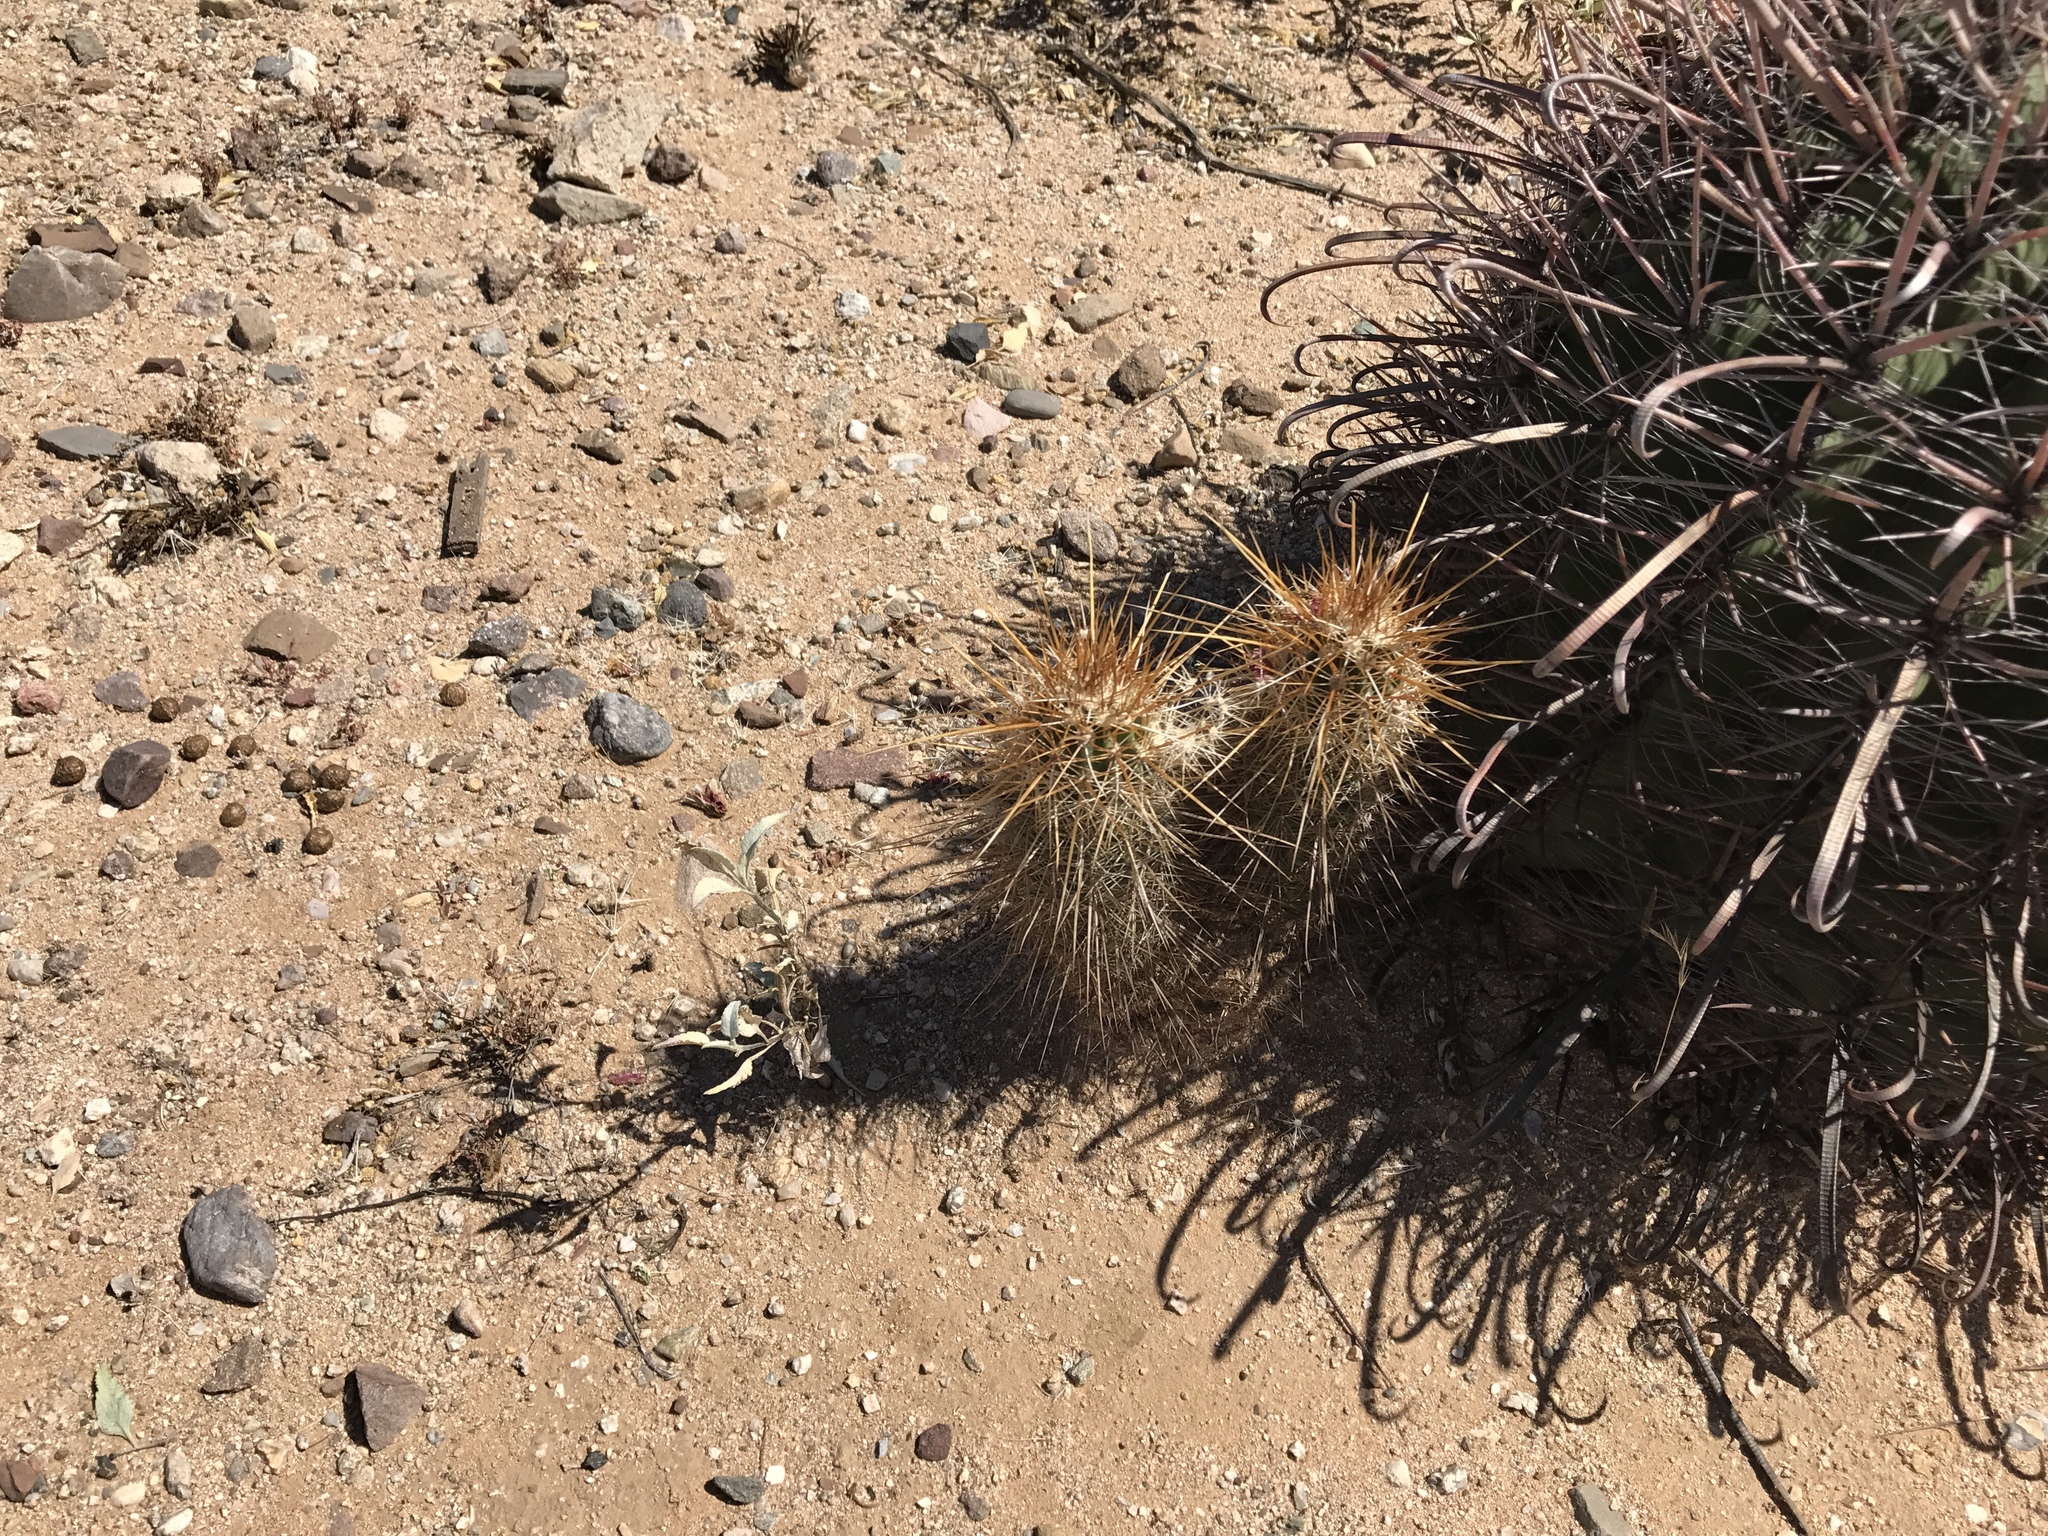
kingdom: Plantae
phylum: Tracheophyta
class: Magnoliopsida
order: Caryophyllales
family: Cactaceae
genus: Echinocereus
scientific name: Echinocereus engelmannii
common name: Engelmann's hedgehog cactus
